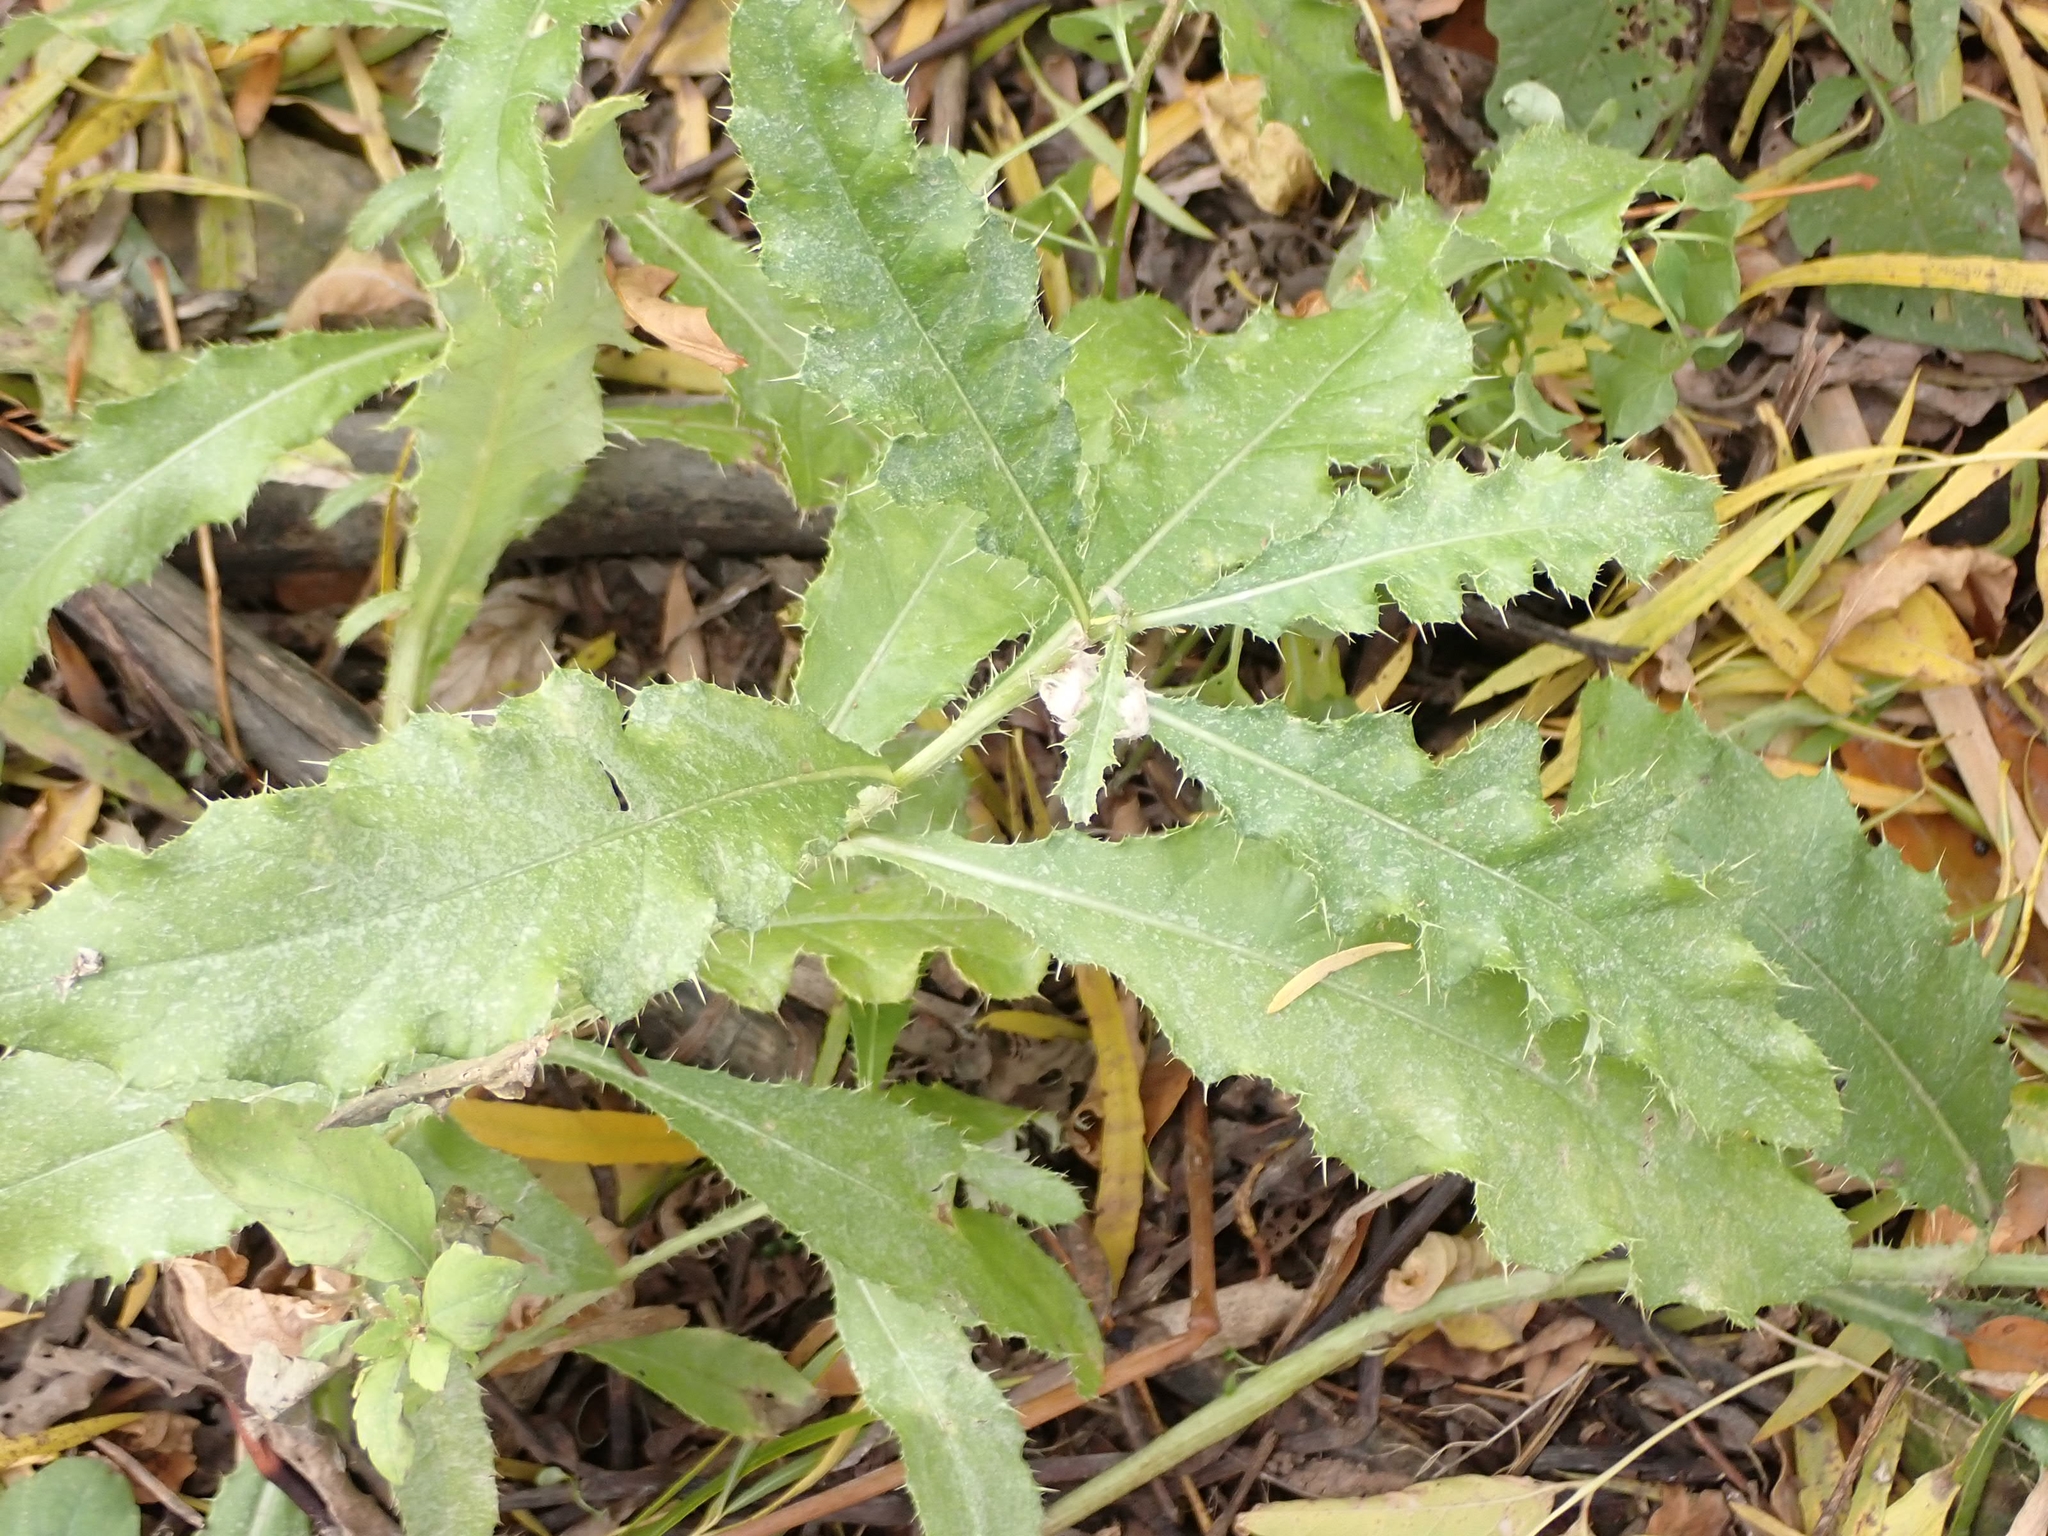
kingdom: Plantae
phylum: Tracheophyta
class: Magnoliopsida
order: Asterales
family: Asteraceae
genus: Cirsium
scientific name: Cirsium arvense
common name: Creeping thistle
